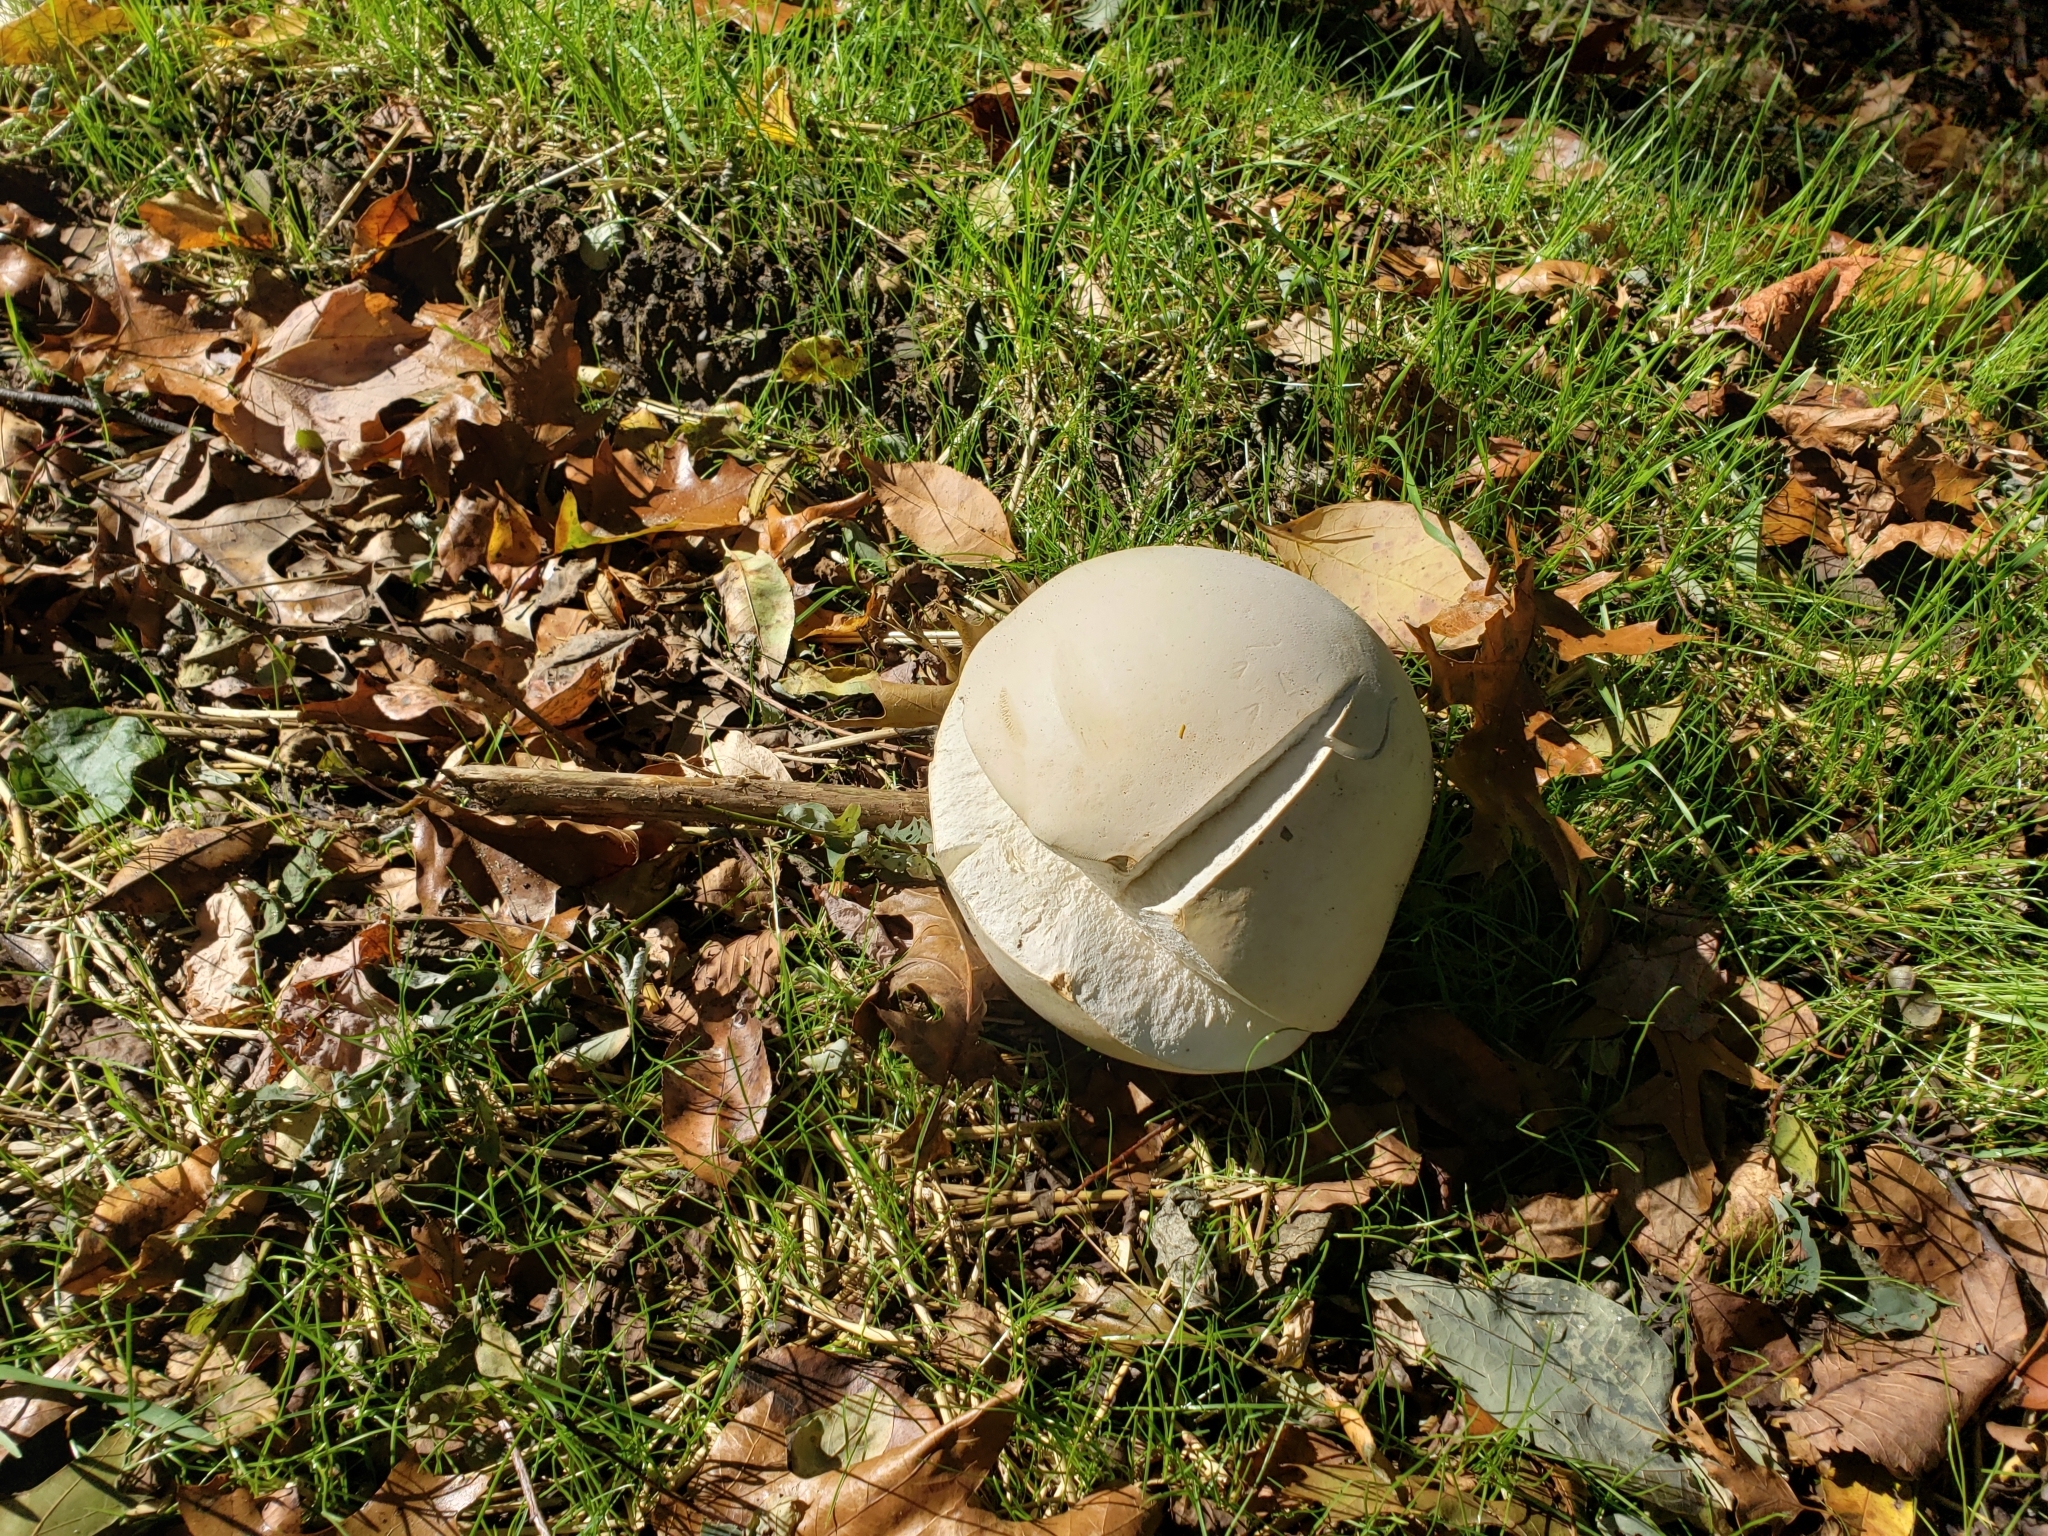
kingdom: Fungi
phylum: Basidiomycota
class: Agaricomycetes
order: Agaricales
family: Lycoperdaceae
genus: Calvatia
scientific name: Calvatia gigantea
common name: Giant puffball
